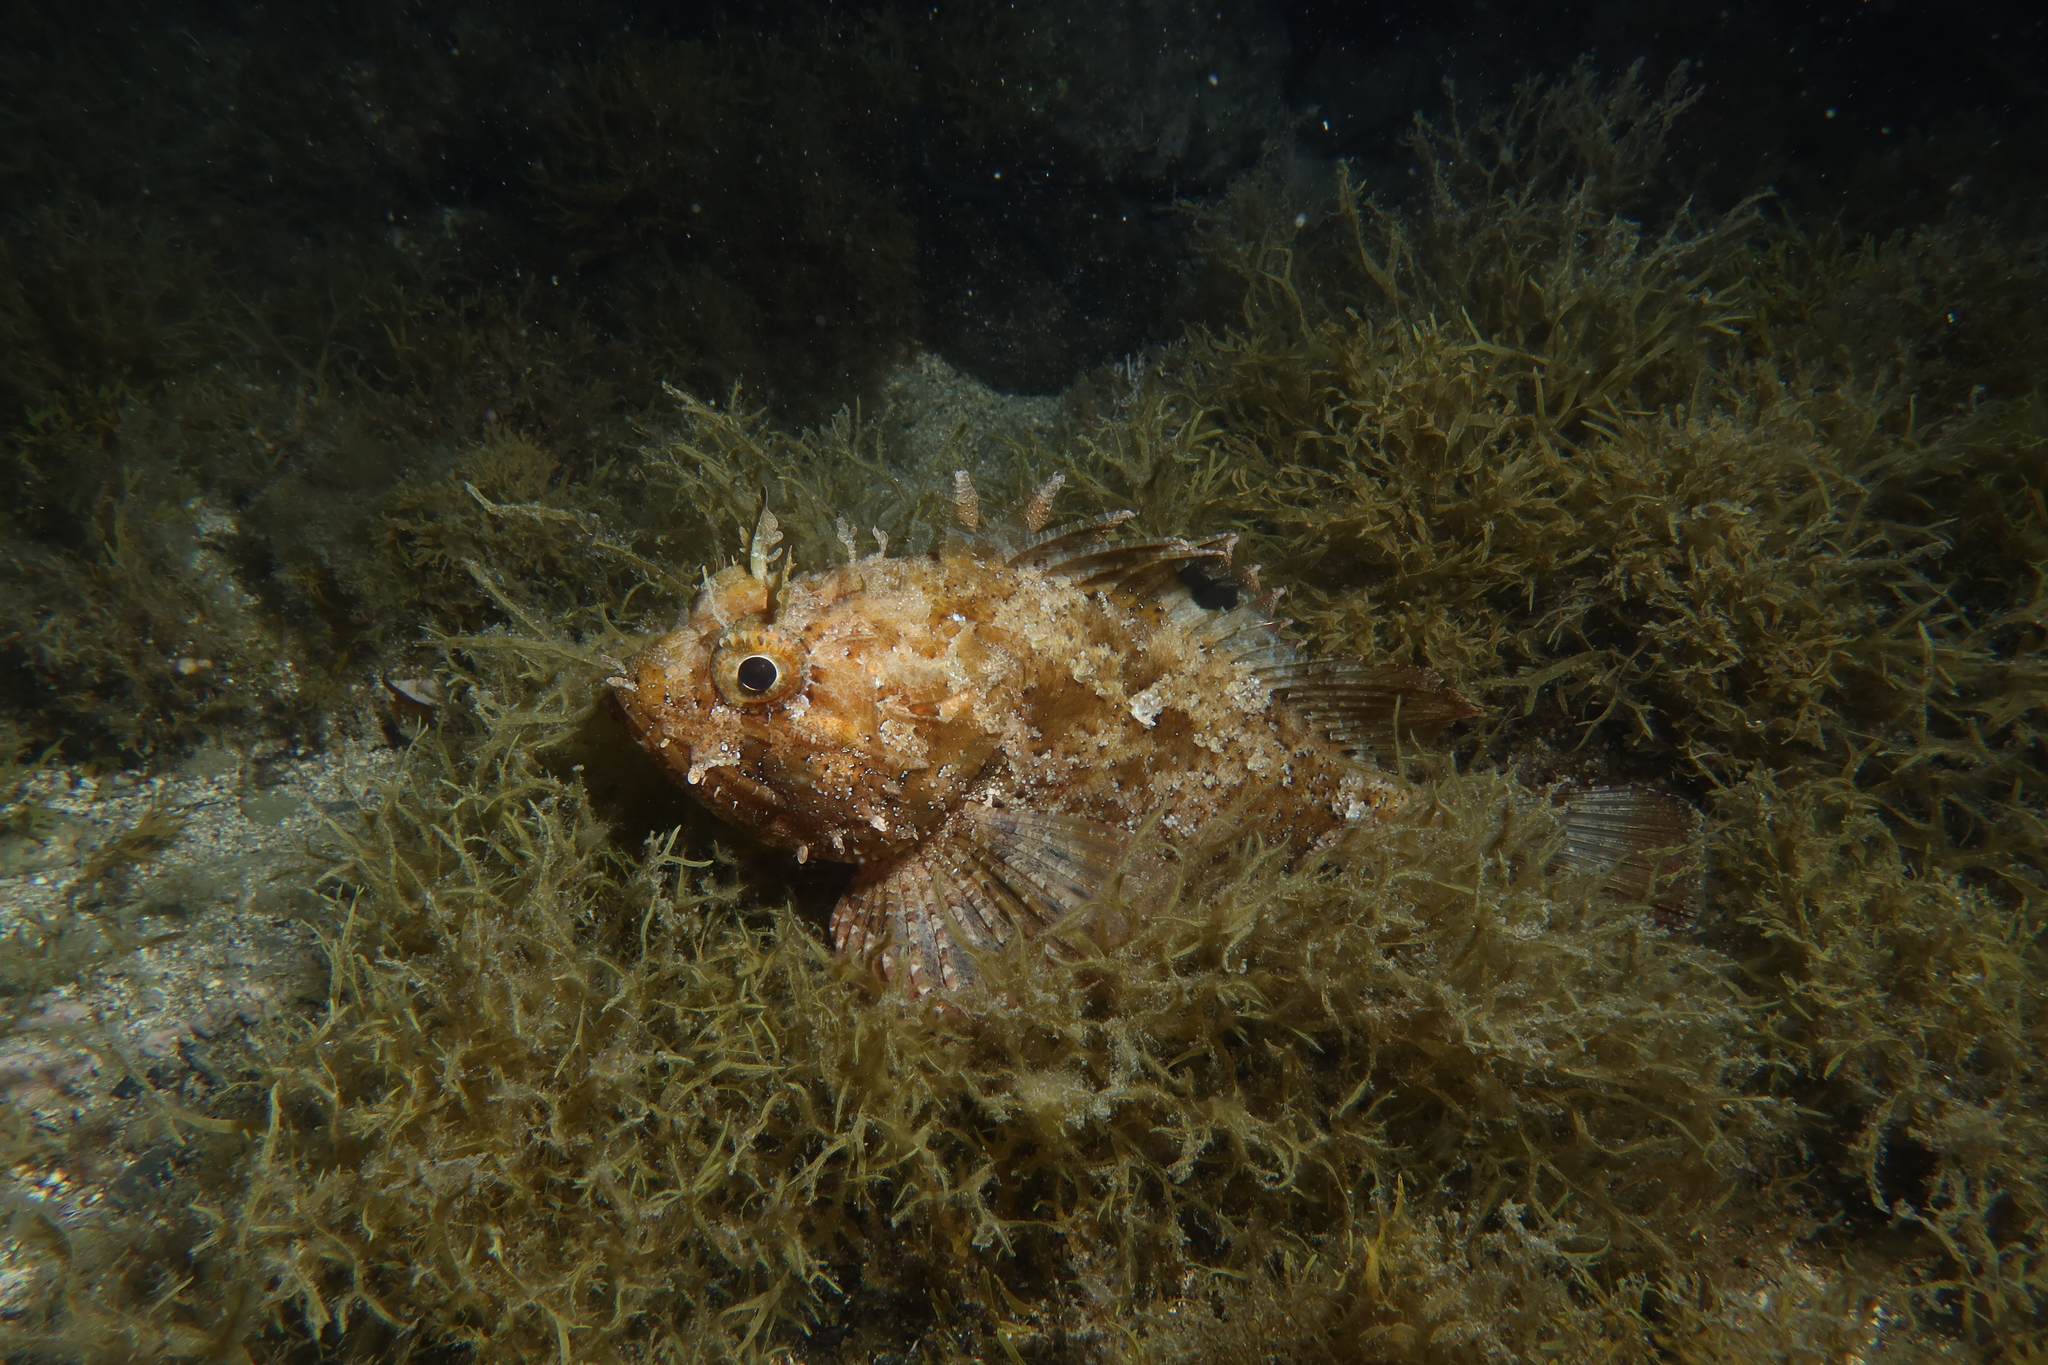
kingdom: Animalia
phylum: Chordata
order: Scorpaeniformes
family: Scorpaenidae
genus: Scorpaena
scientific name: Scorpaena porcus
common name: Black scorpionfish
